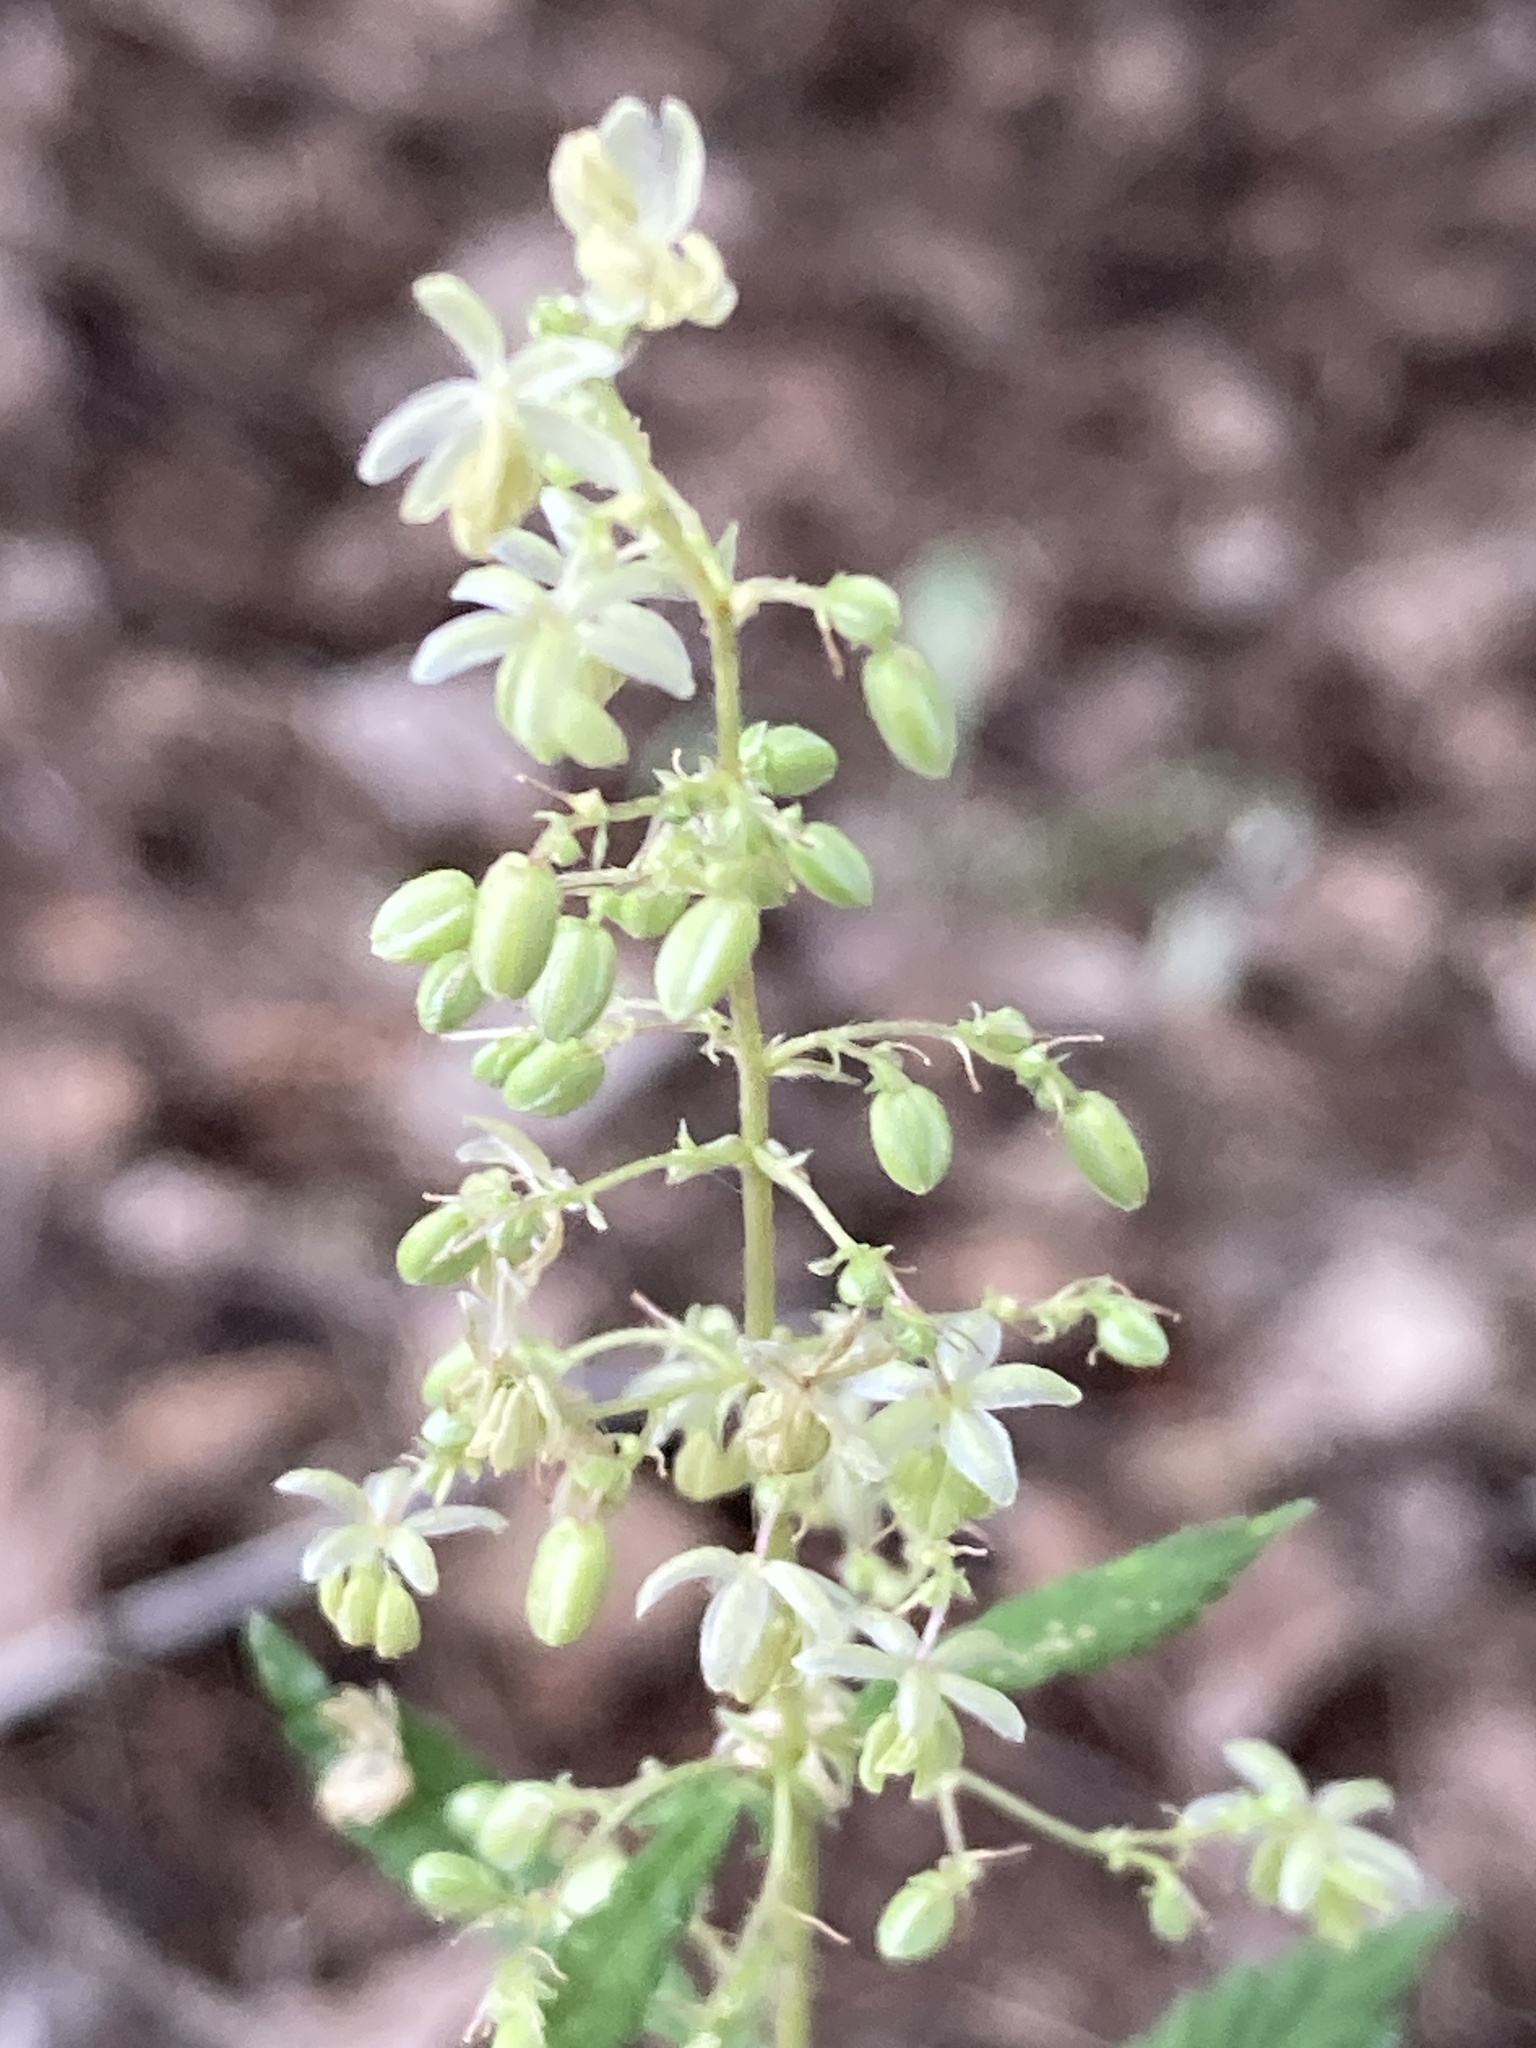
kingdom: Plantae
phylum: Tracheophyta
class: Magnoliopsida
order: Rosales
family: Cannabaceae
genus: Cannabis
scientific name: Cannabis sativa
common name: Hemp
